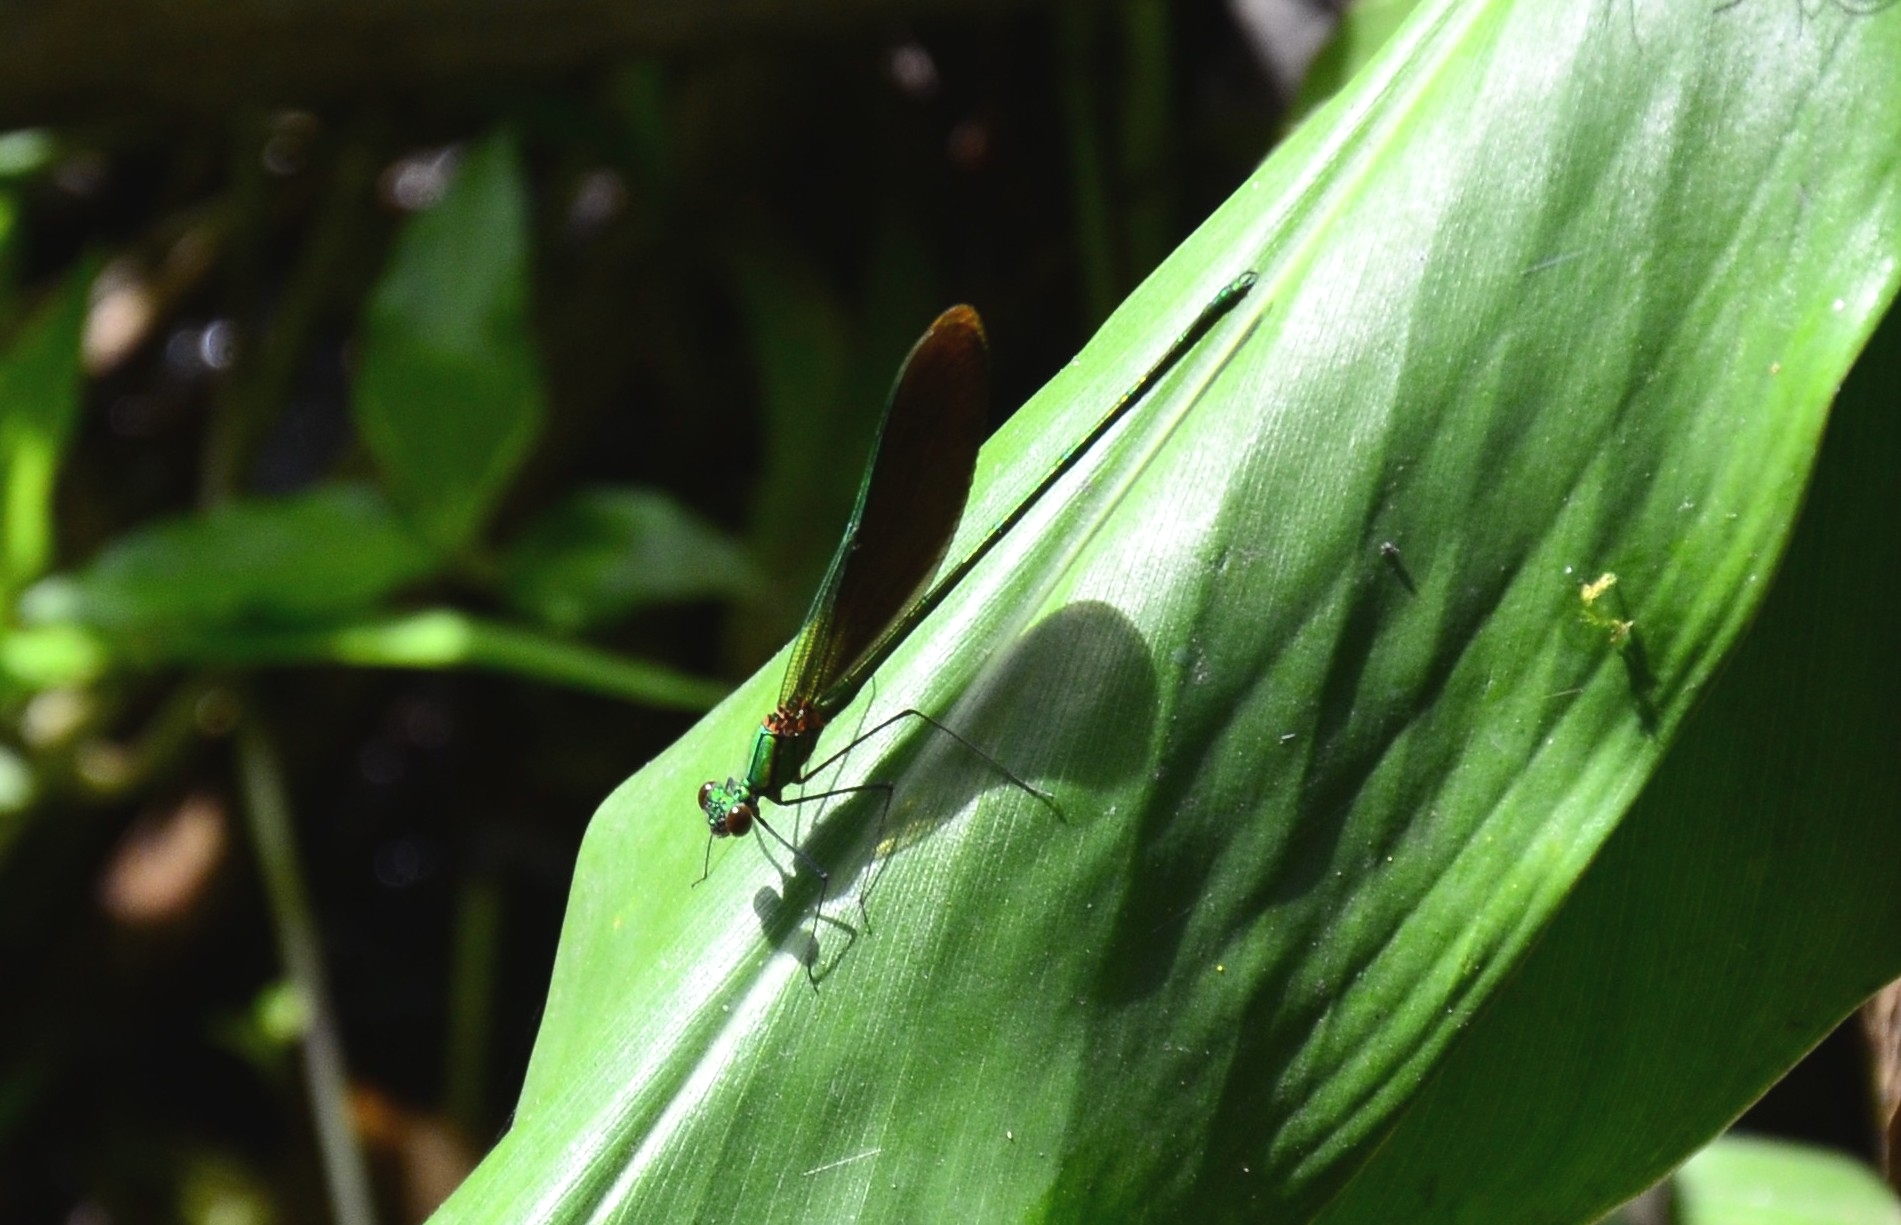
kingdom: Animalia
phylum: Arthropoda
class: Insecta
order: Odonata
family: Calopterygidae
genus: Neurobasis
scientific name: Neurobasis chinensis
